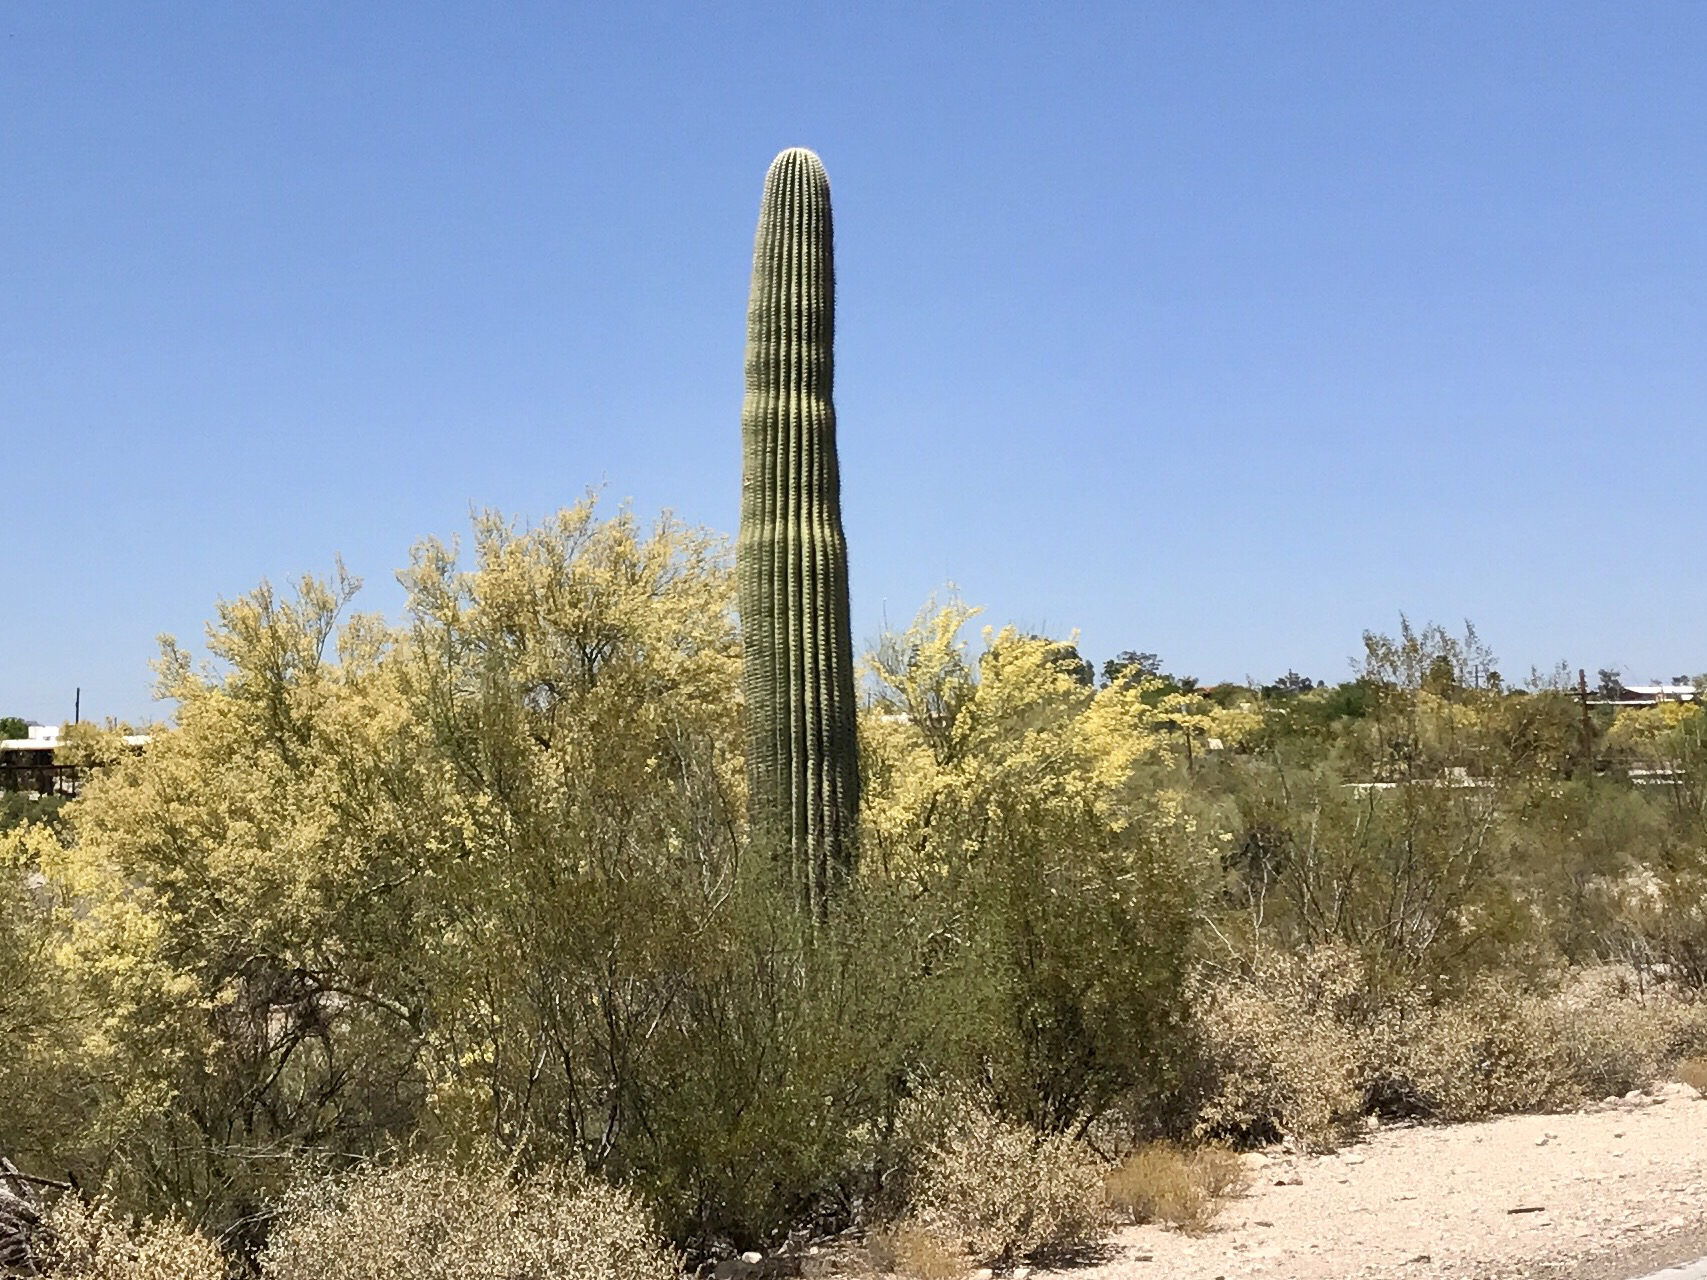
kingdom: Plantae
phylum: Tracheophyta
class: Magnoliopsida
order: Caryophyllales
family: Cactaceae
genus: Carnegiea
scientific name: Carnegiea gigantea
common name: Saguaro
